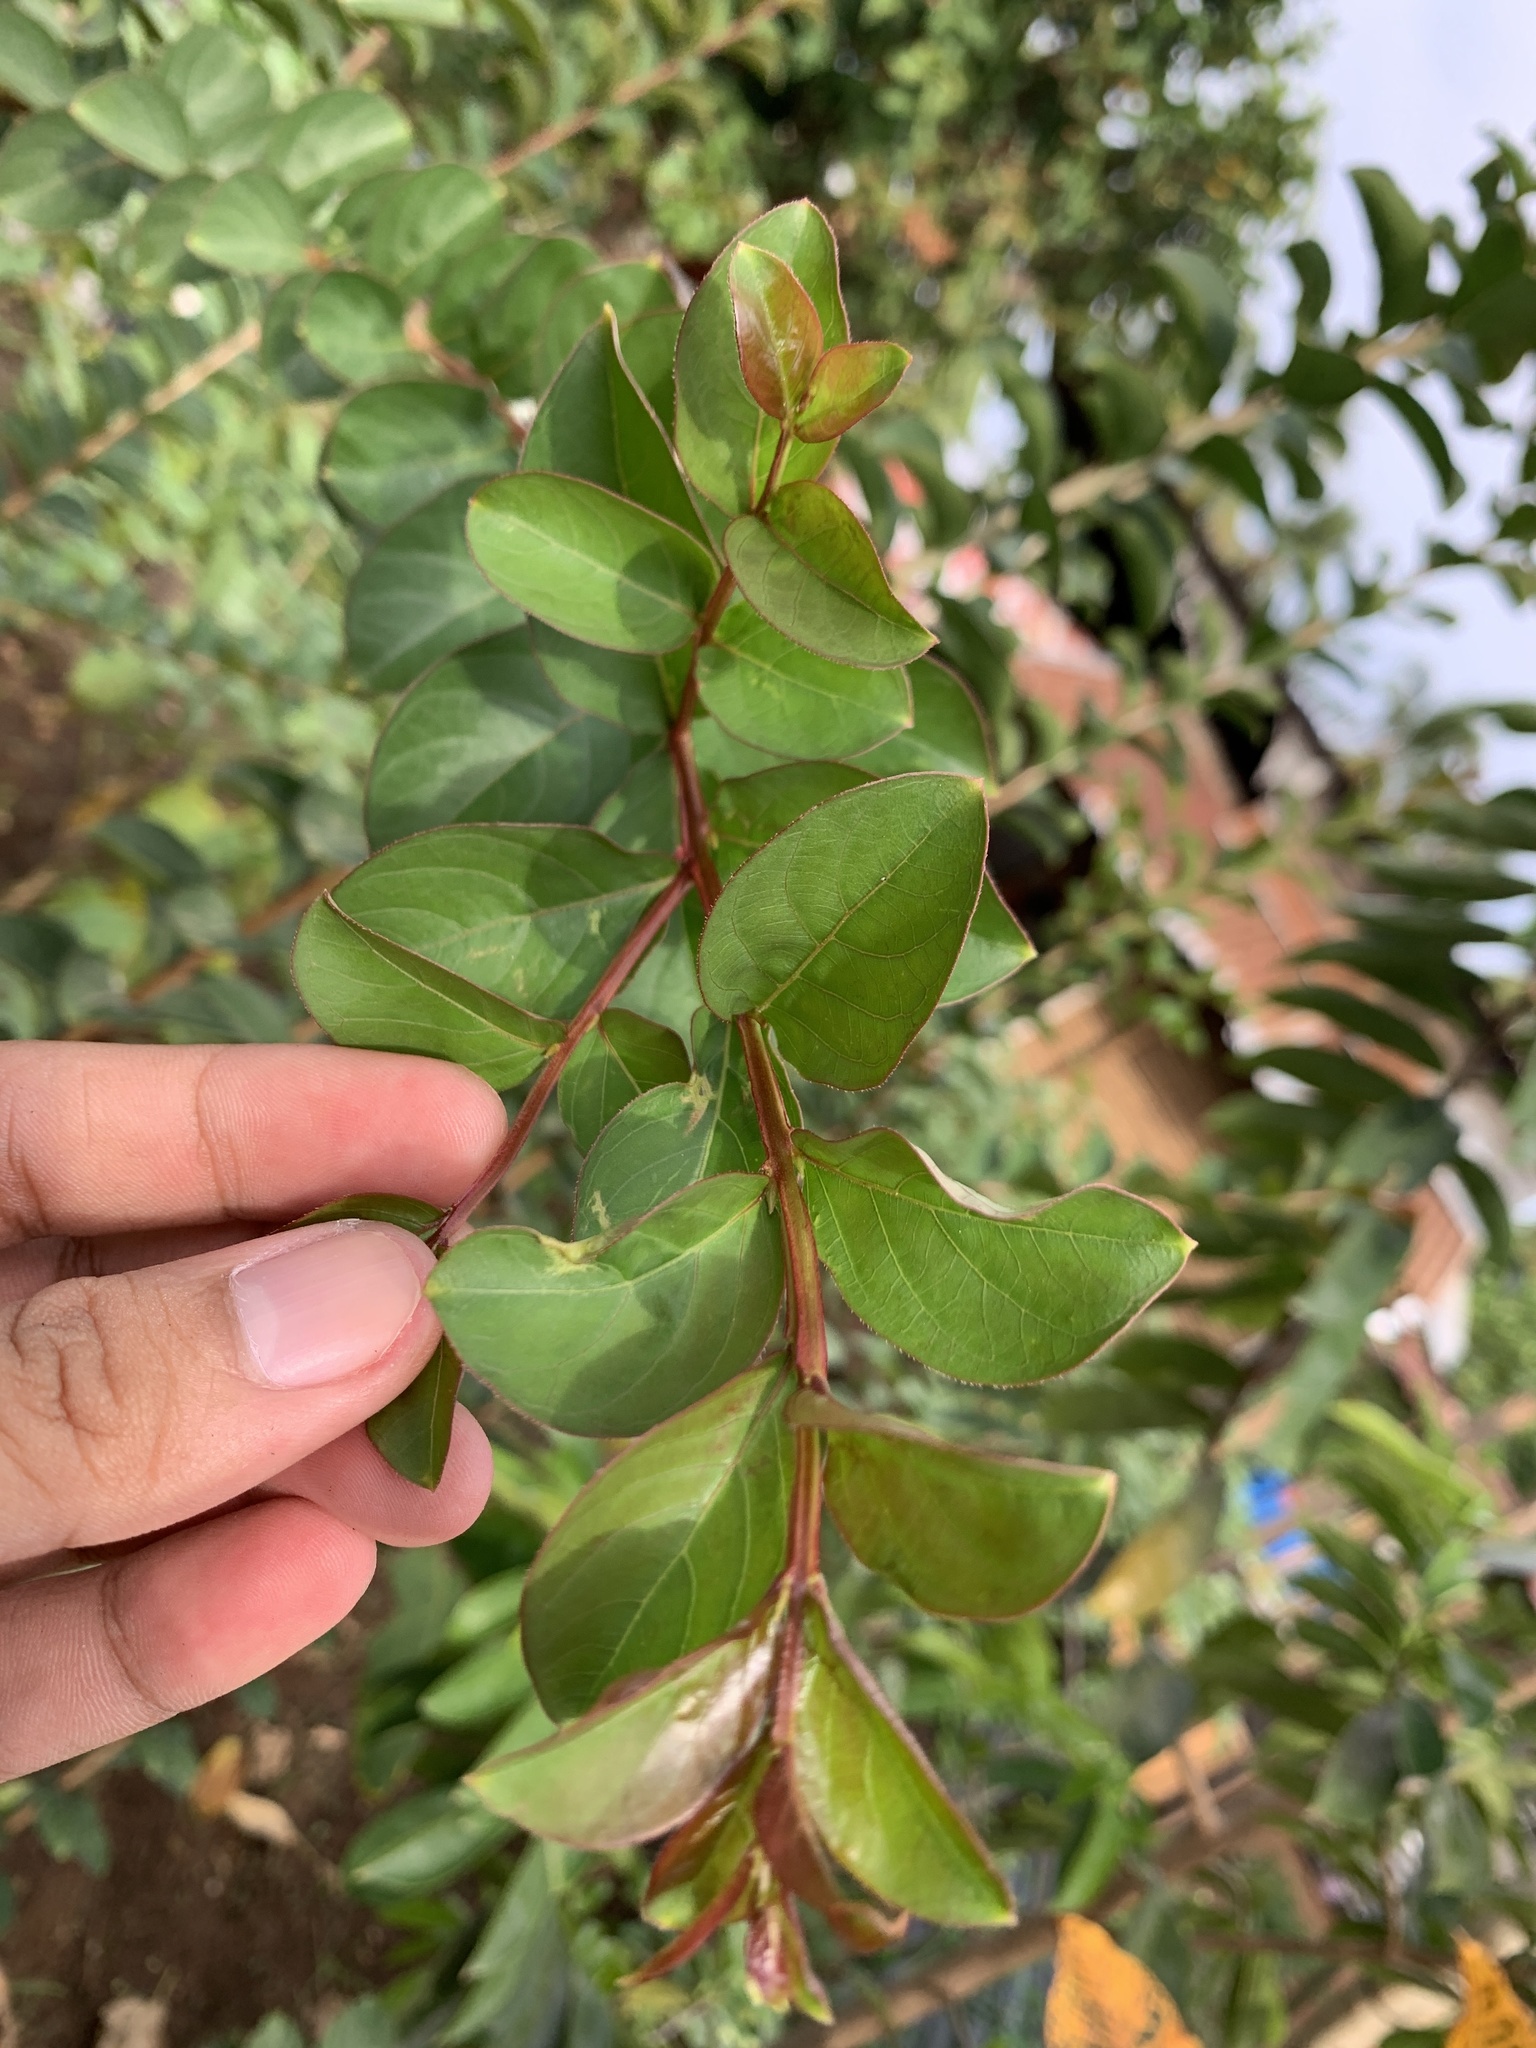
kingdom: Plantae
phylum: Tracheophyta
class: Magnoliopsida
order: Myrtales
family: Lythraceae
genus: Lagerstroemia
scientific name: Lagerstroemia indica
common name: Crape-myrtle
